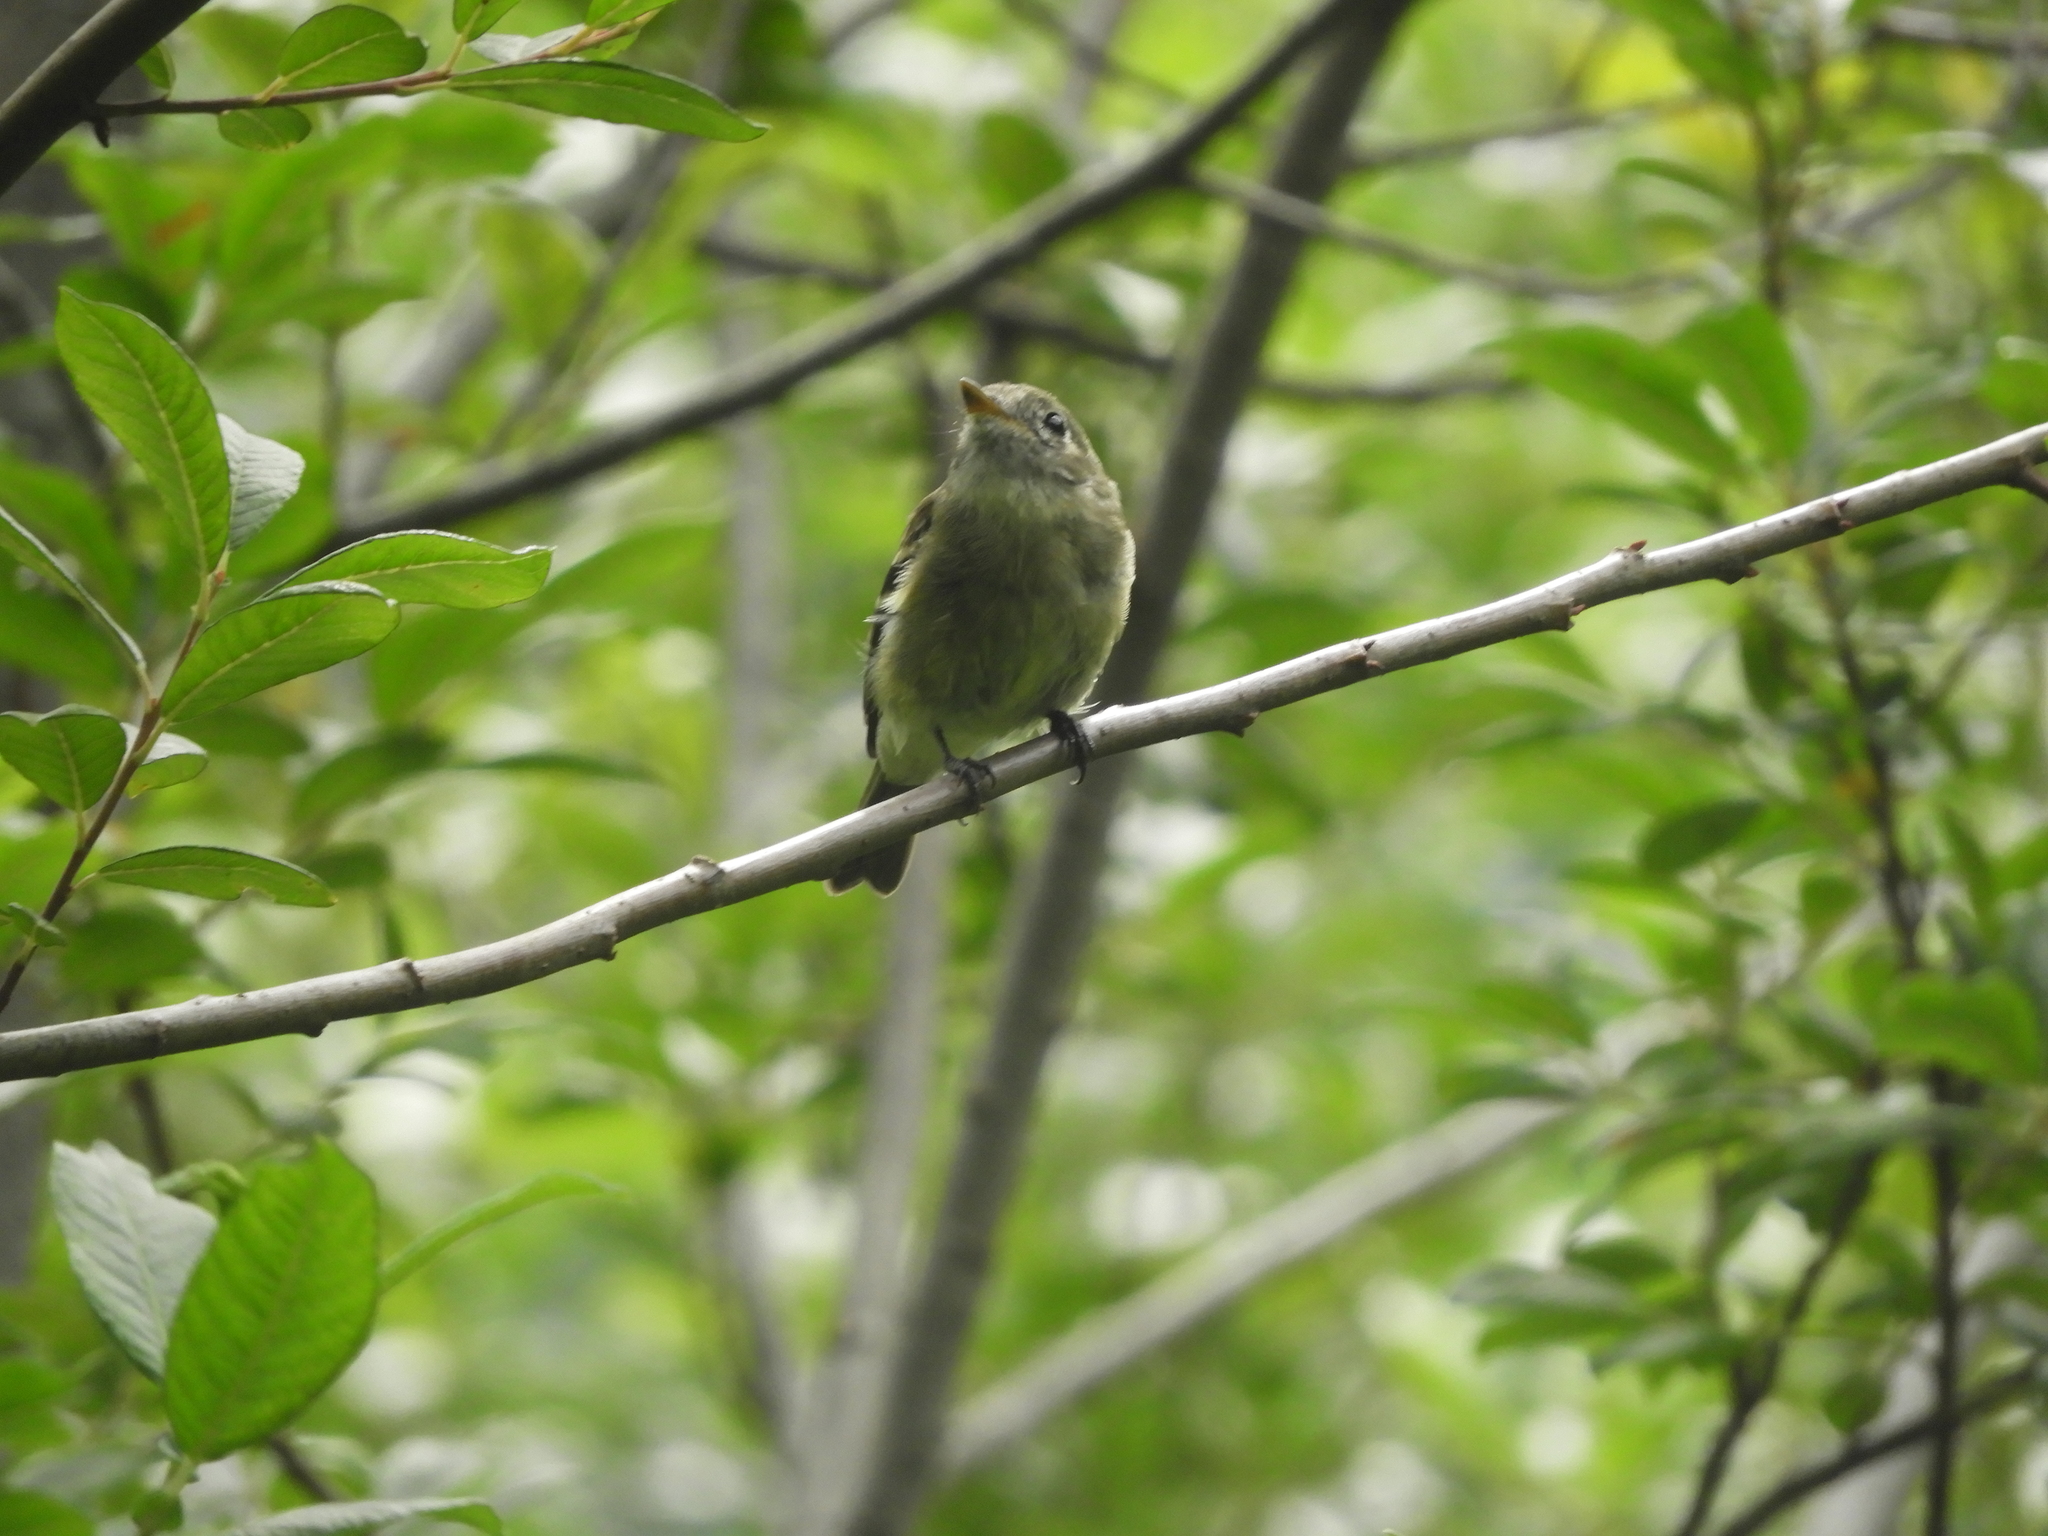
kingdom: Animalia
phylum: Chordata
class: Aves
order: Passeriformes
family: Tyrannidae
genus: Empidonax
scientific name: Empidonax traillii
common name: Willow flycatcher
